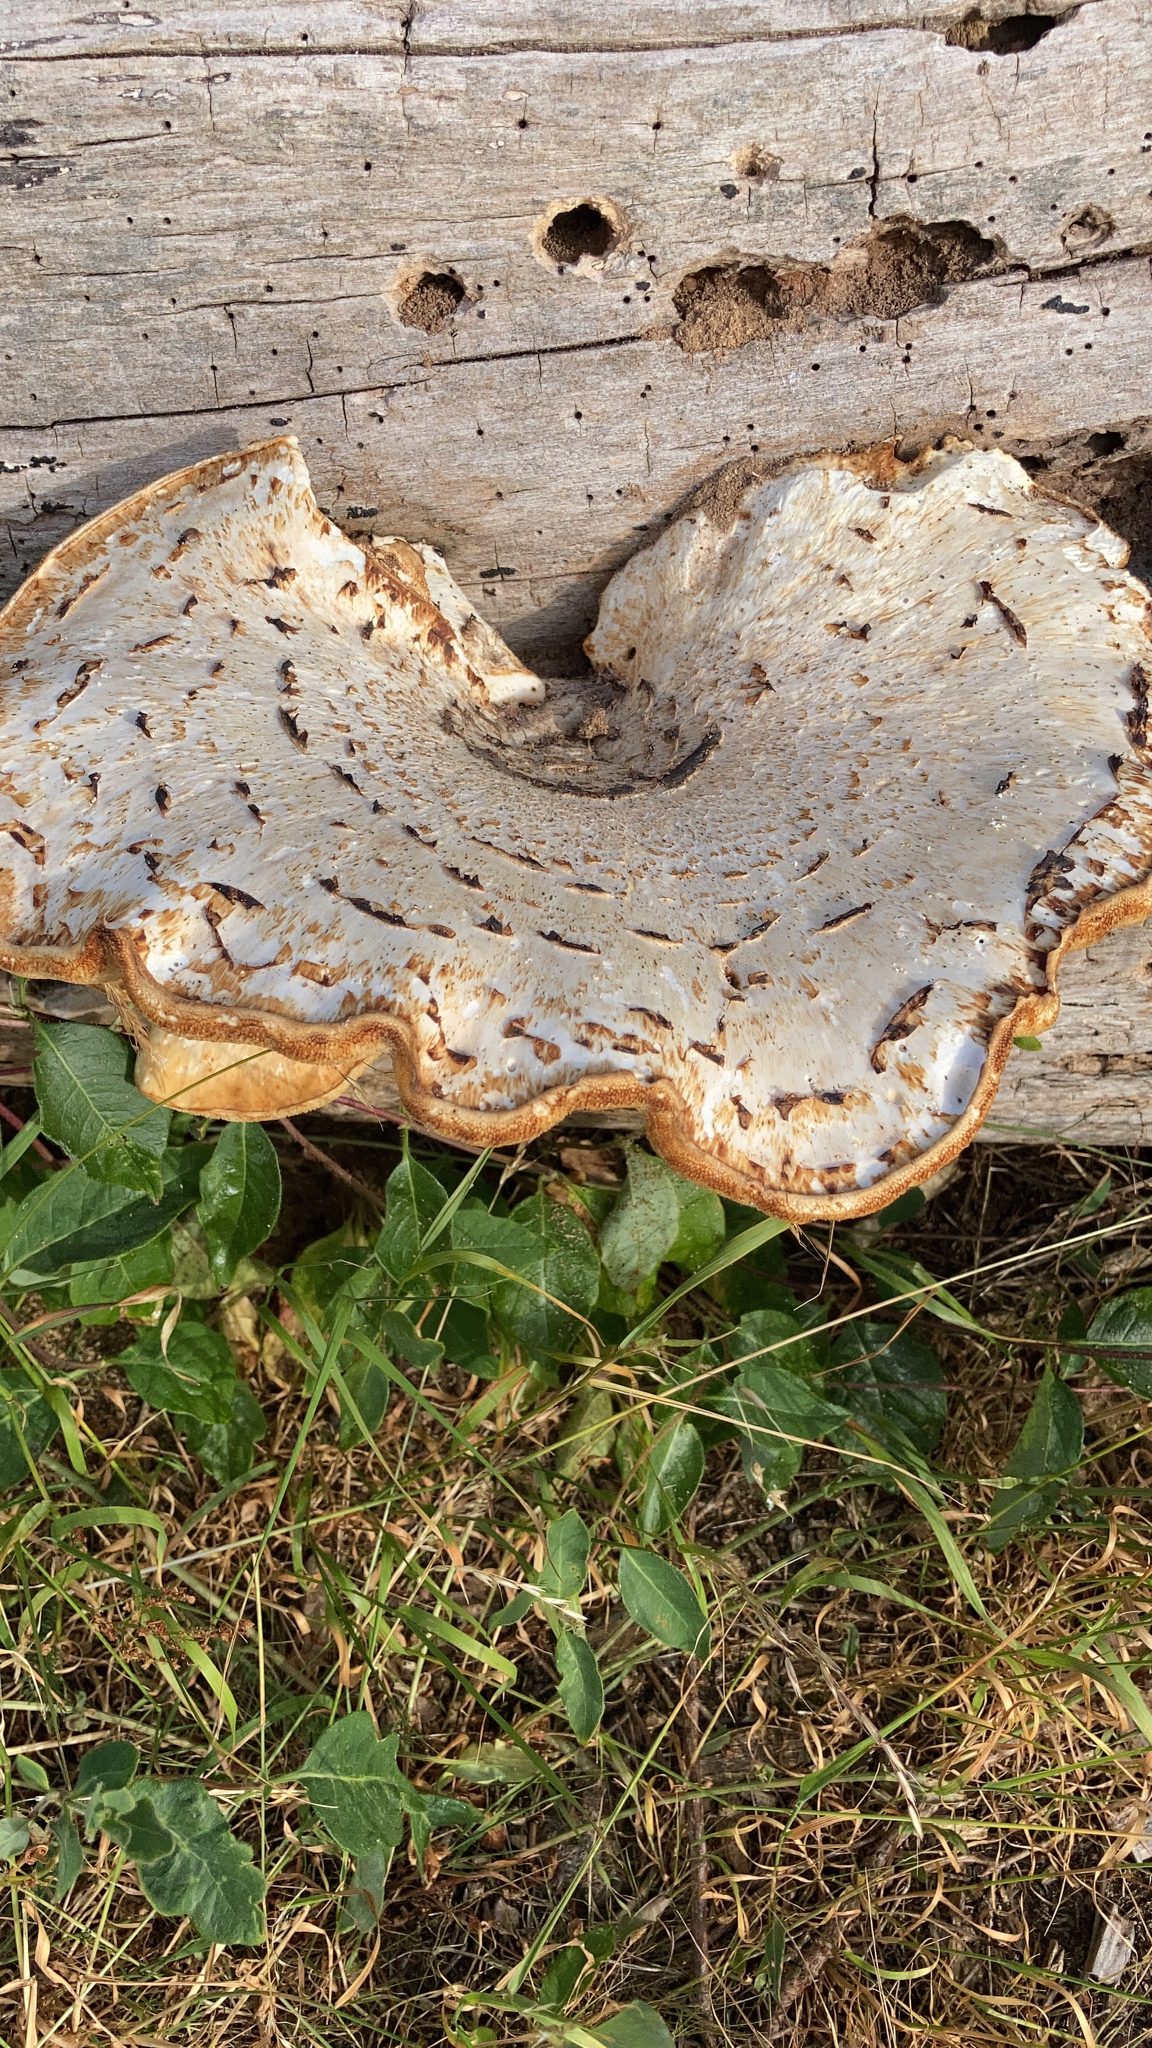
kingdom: Fungi
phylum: Basidiomycota
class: Agaricomycetes
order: Polyporales
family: Polyporaceae
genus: Cerioporus
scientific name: Cerioporus squamosus
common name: Dryad's saddle
